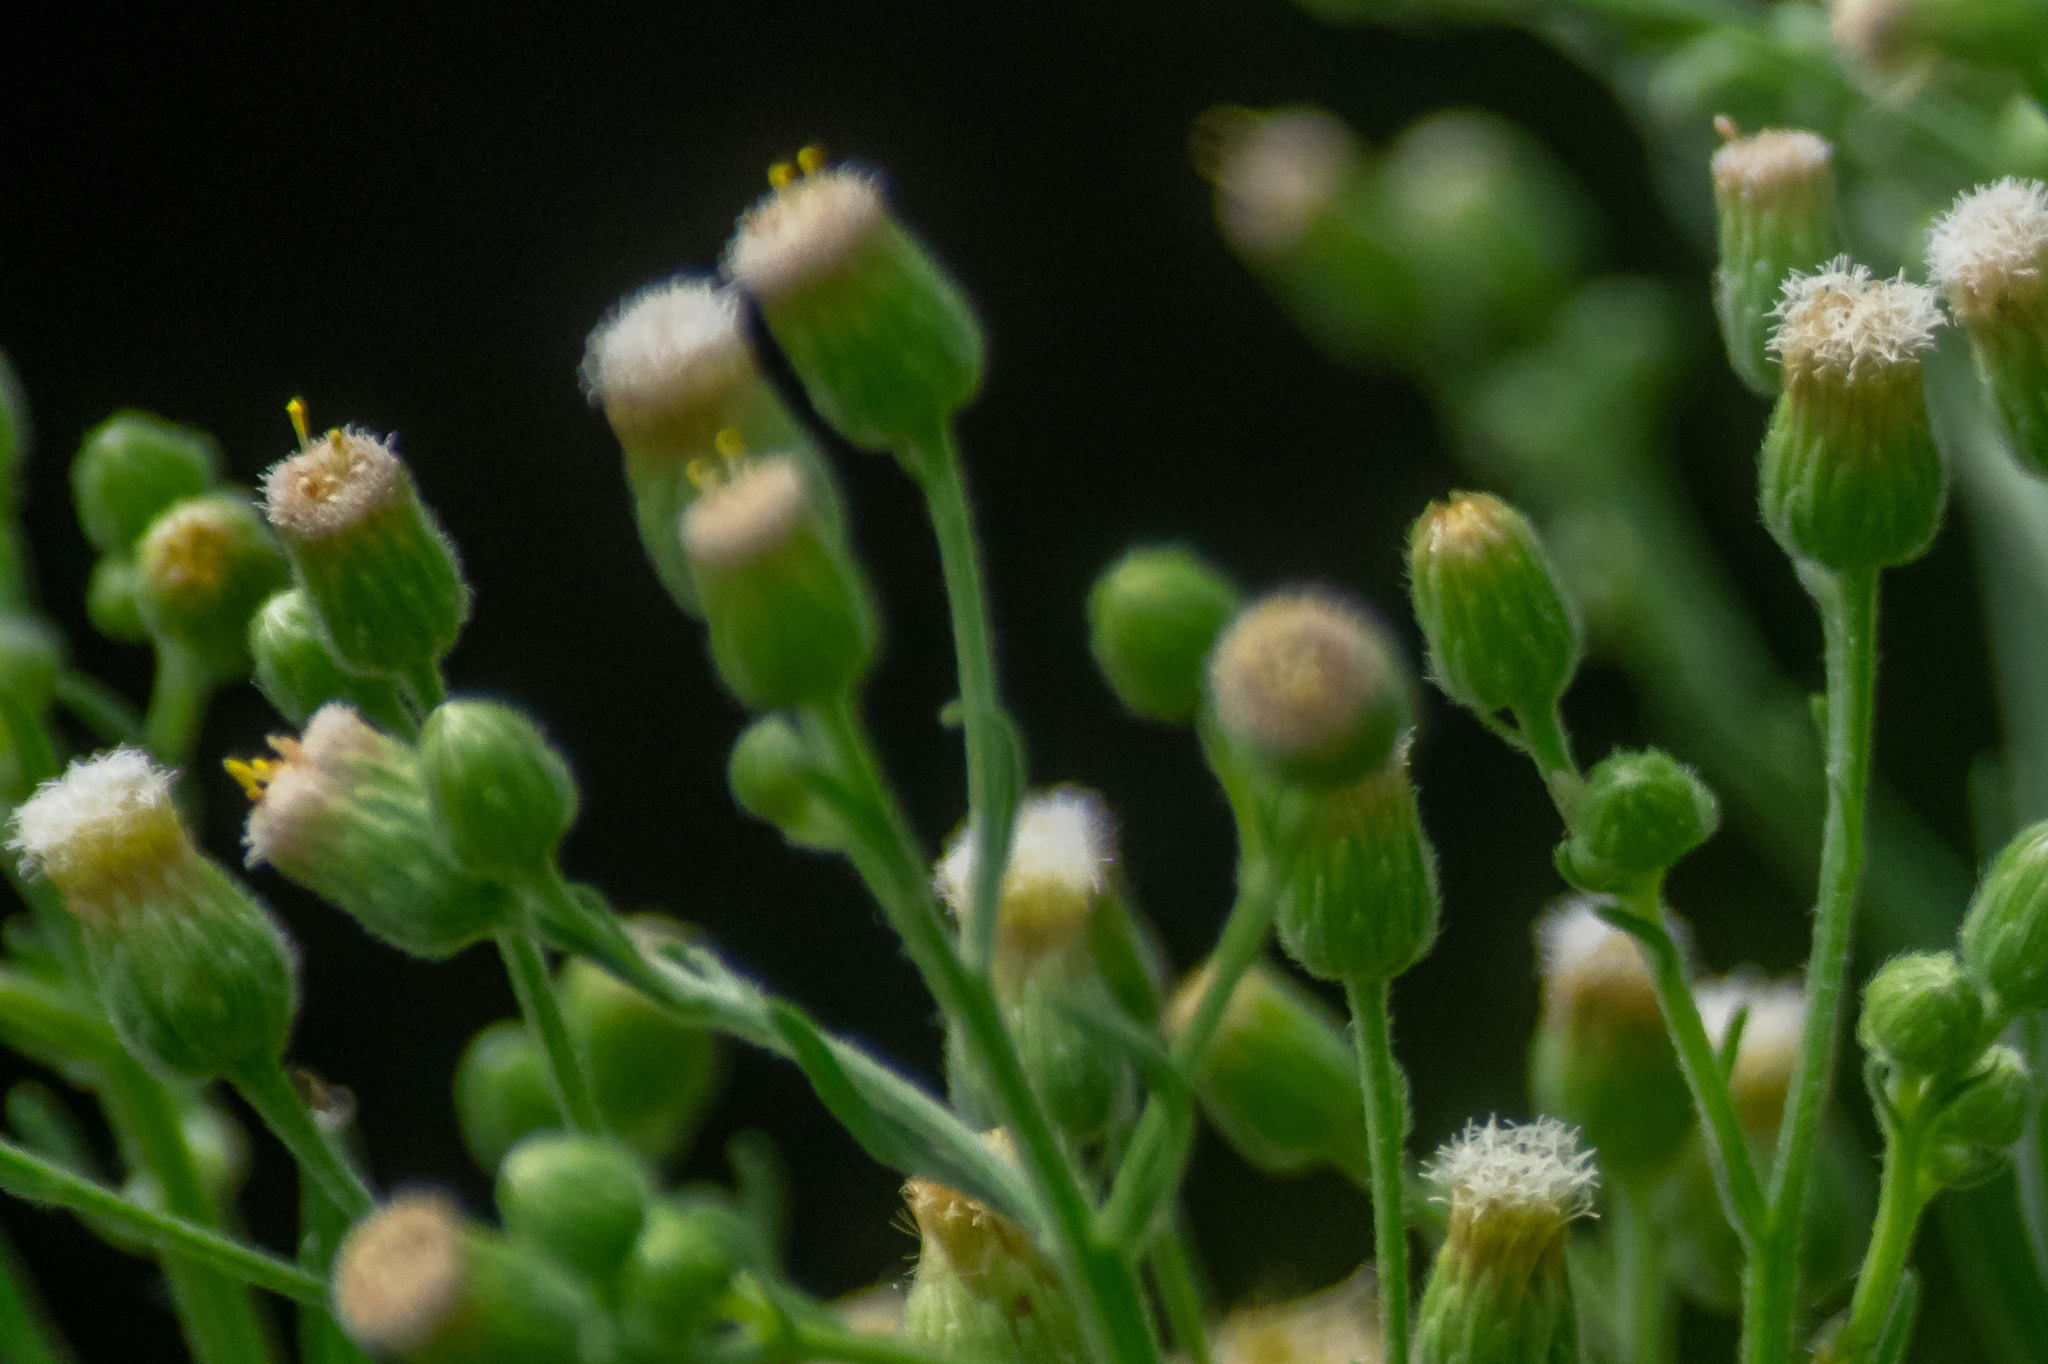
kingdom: Plantae
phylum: Tracheophyta
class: Magnoliopsida
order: Asterales
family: Asteraceae
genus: Erigeron
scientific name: Erigeron bonariensis
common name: Argentine fleabane
